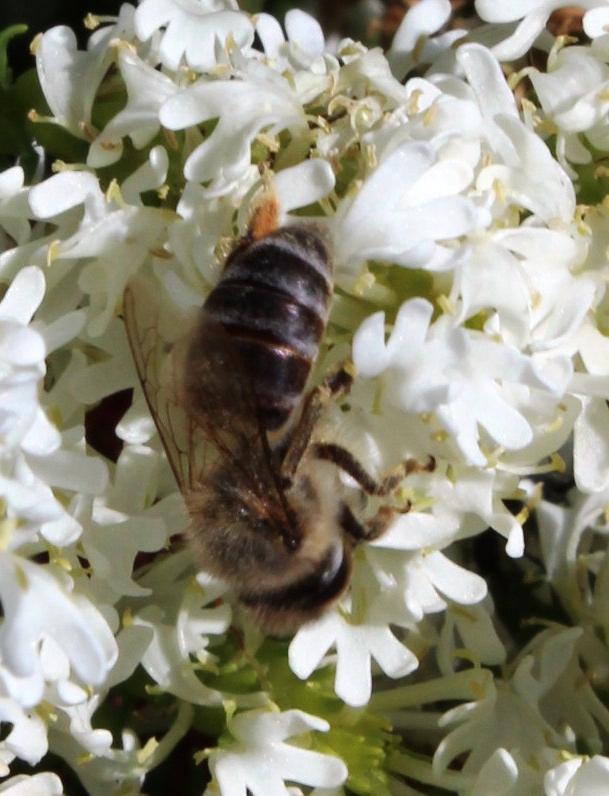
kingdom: Animalia
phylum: Arthropoda
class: Insecta
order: Hymenoptera
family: Apidae
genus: Apis
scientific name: Apis mellifera
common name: Honey bee
